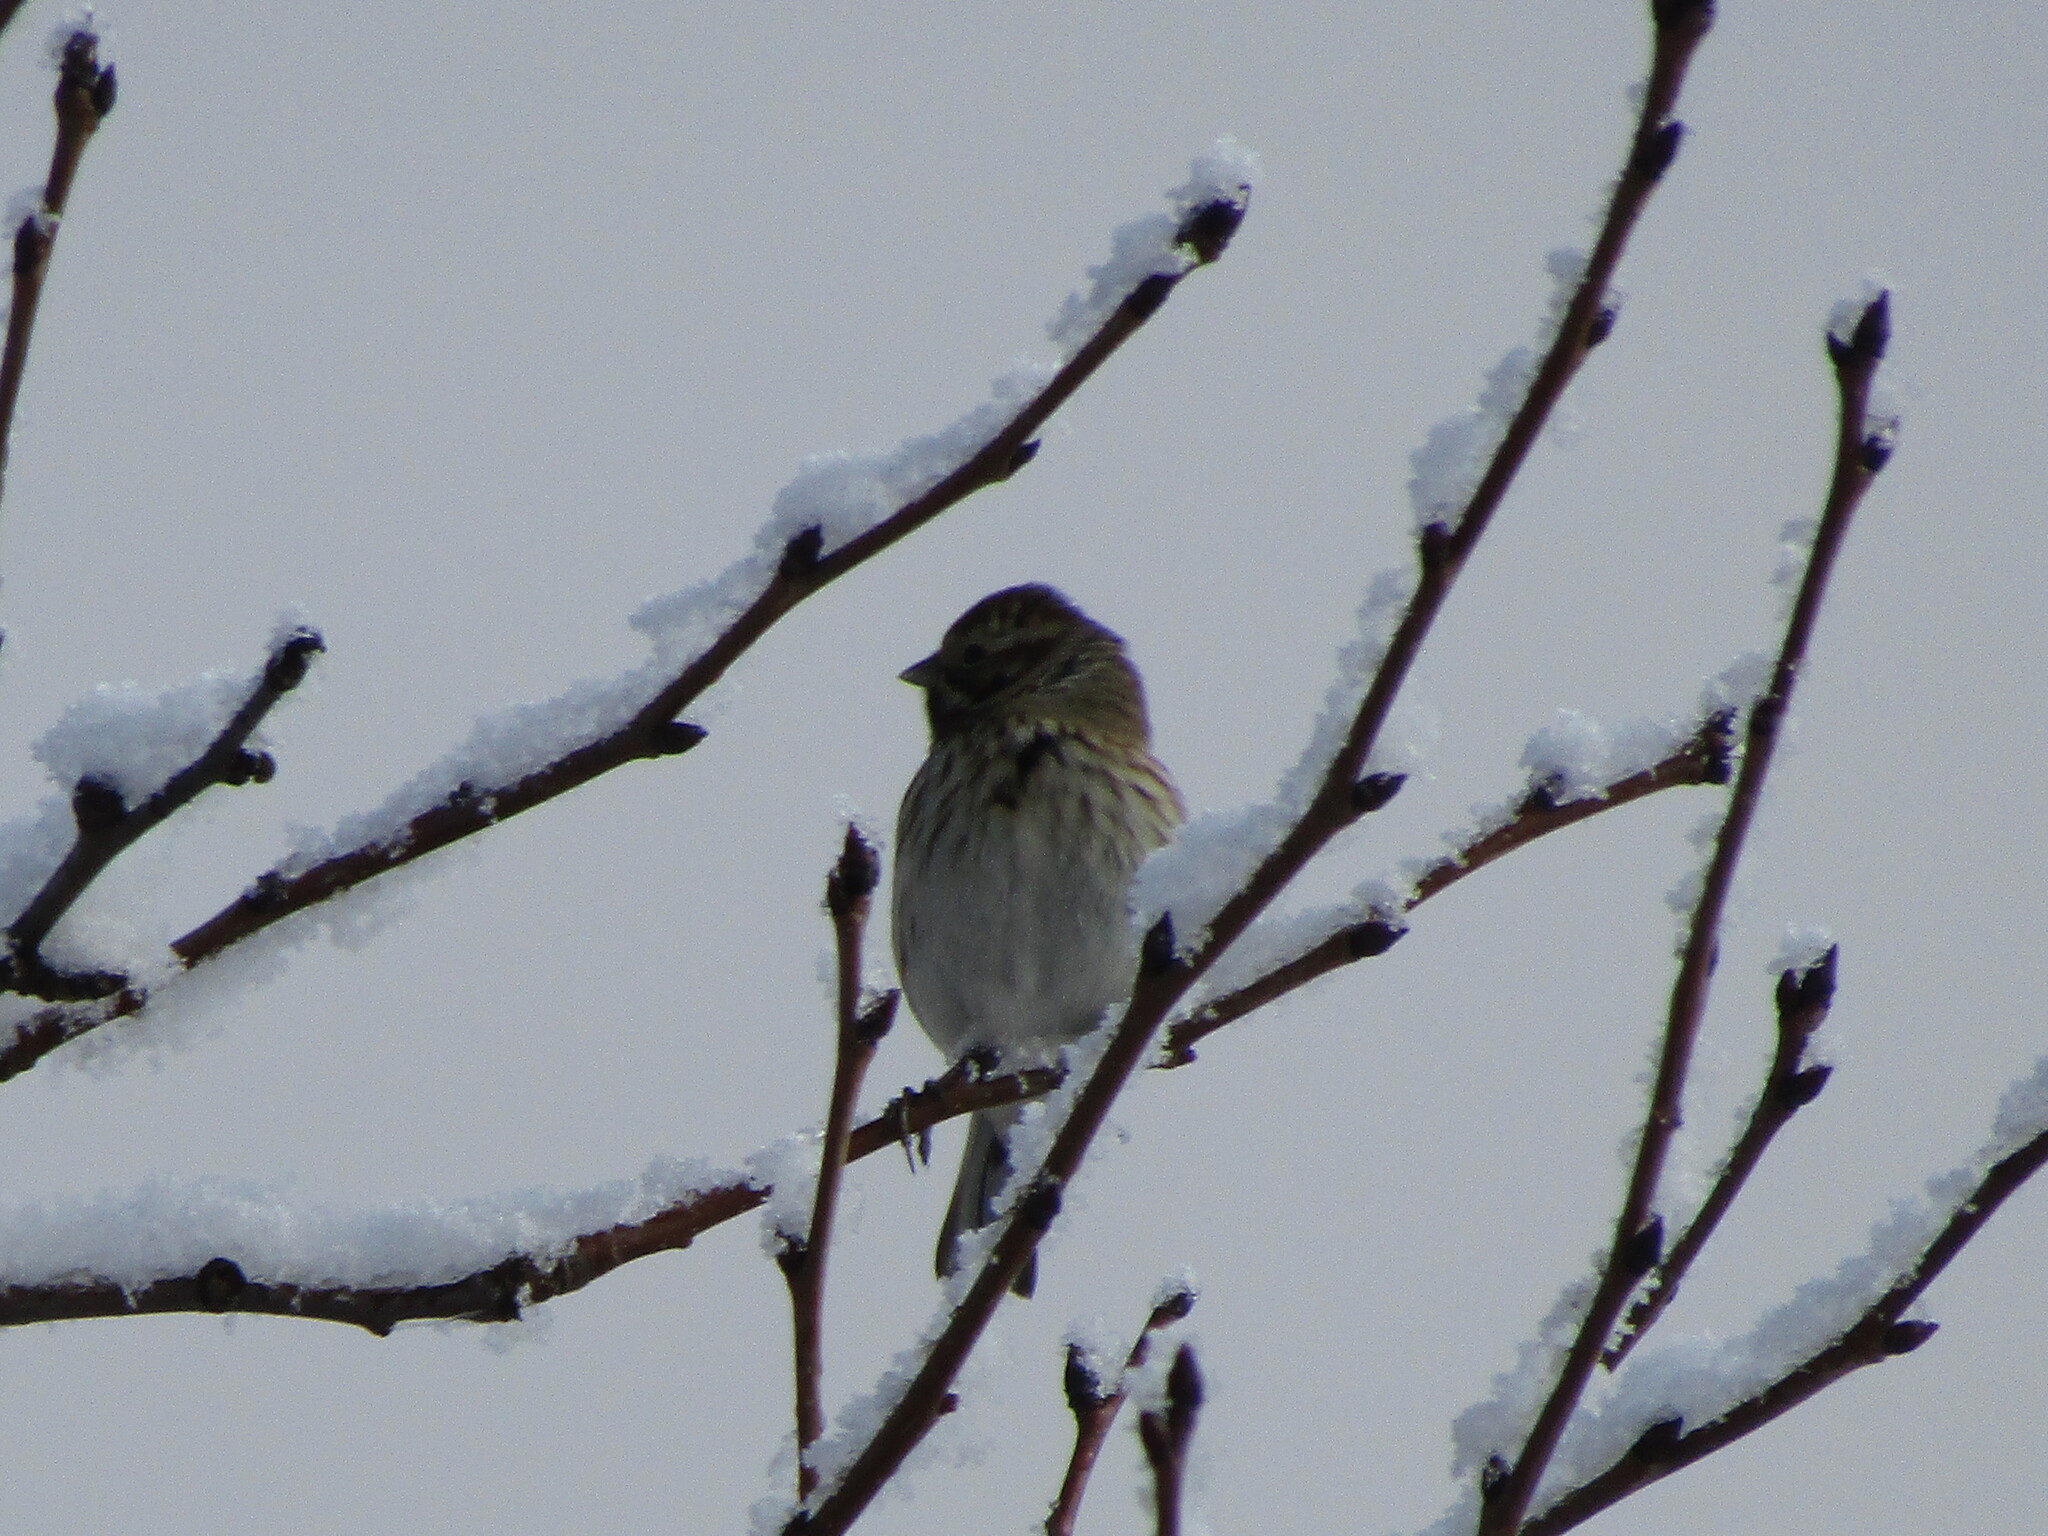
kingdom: Animalia
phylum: Chordata
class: Aves
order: Passeriformes
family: Emberizidae
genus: Emberiza
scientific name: Emberiza schoeniclus
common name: Reed bunting
